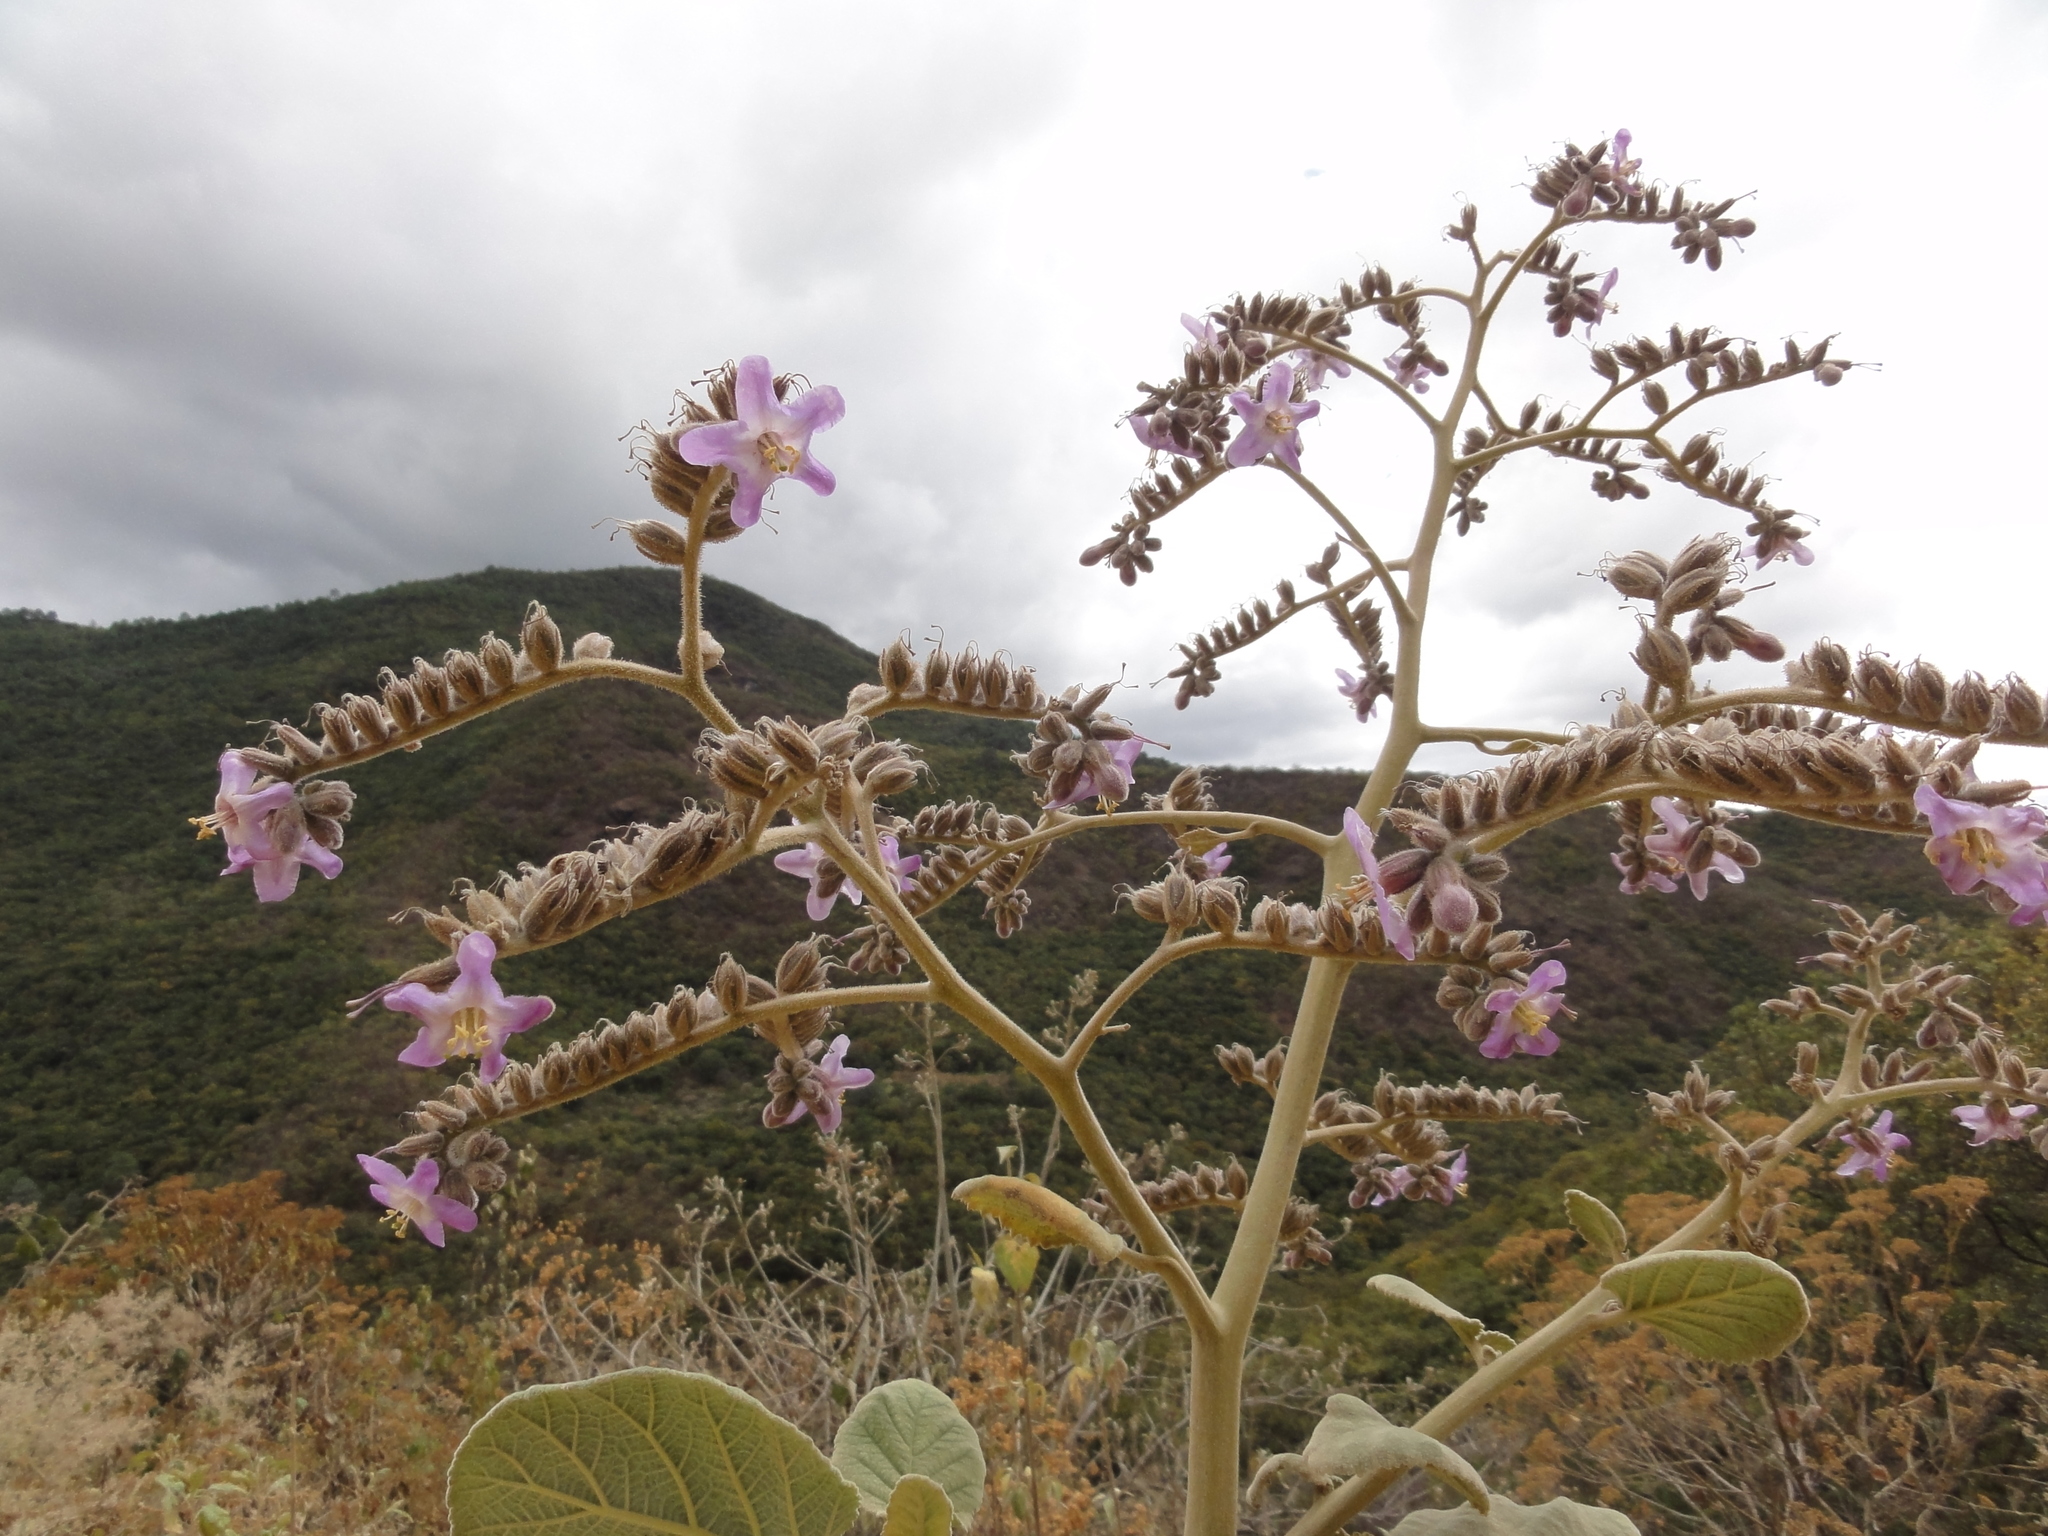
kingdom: Plantae
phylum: Tracheophyta
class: Magnoliopsida
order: Boraginales
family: Namaceae
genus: Wigandia
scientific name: Wigandia urens
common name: Caracus wigandia
